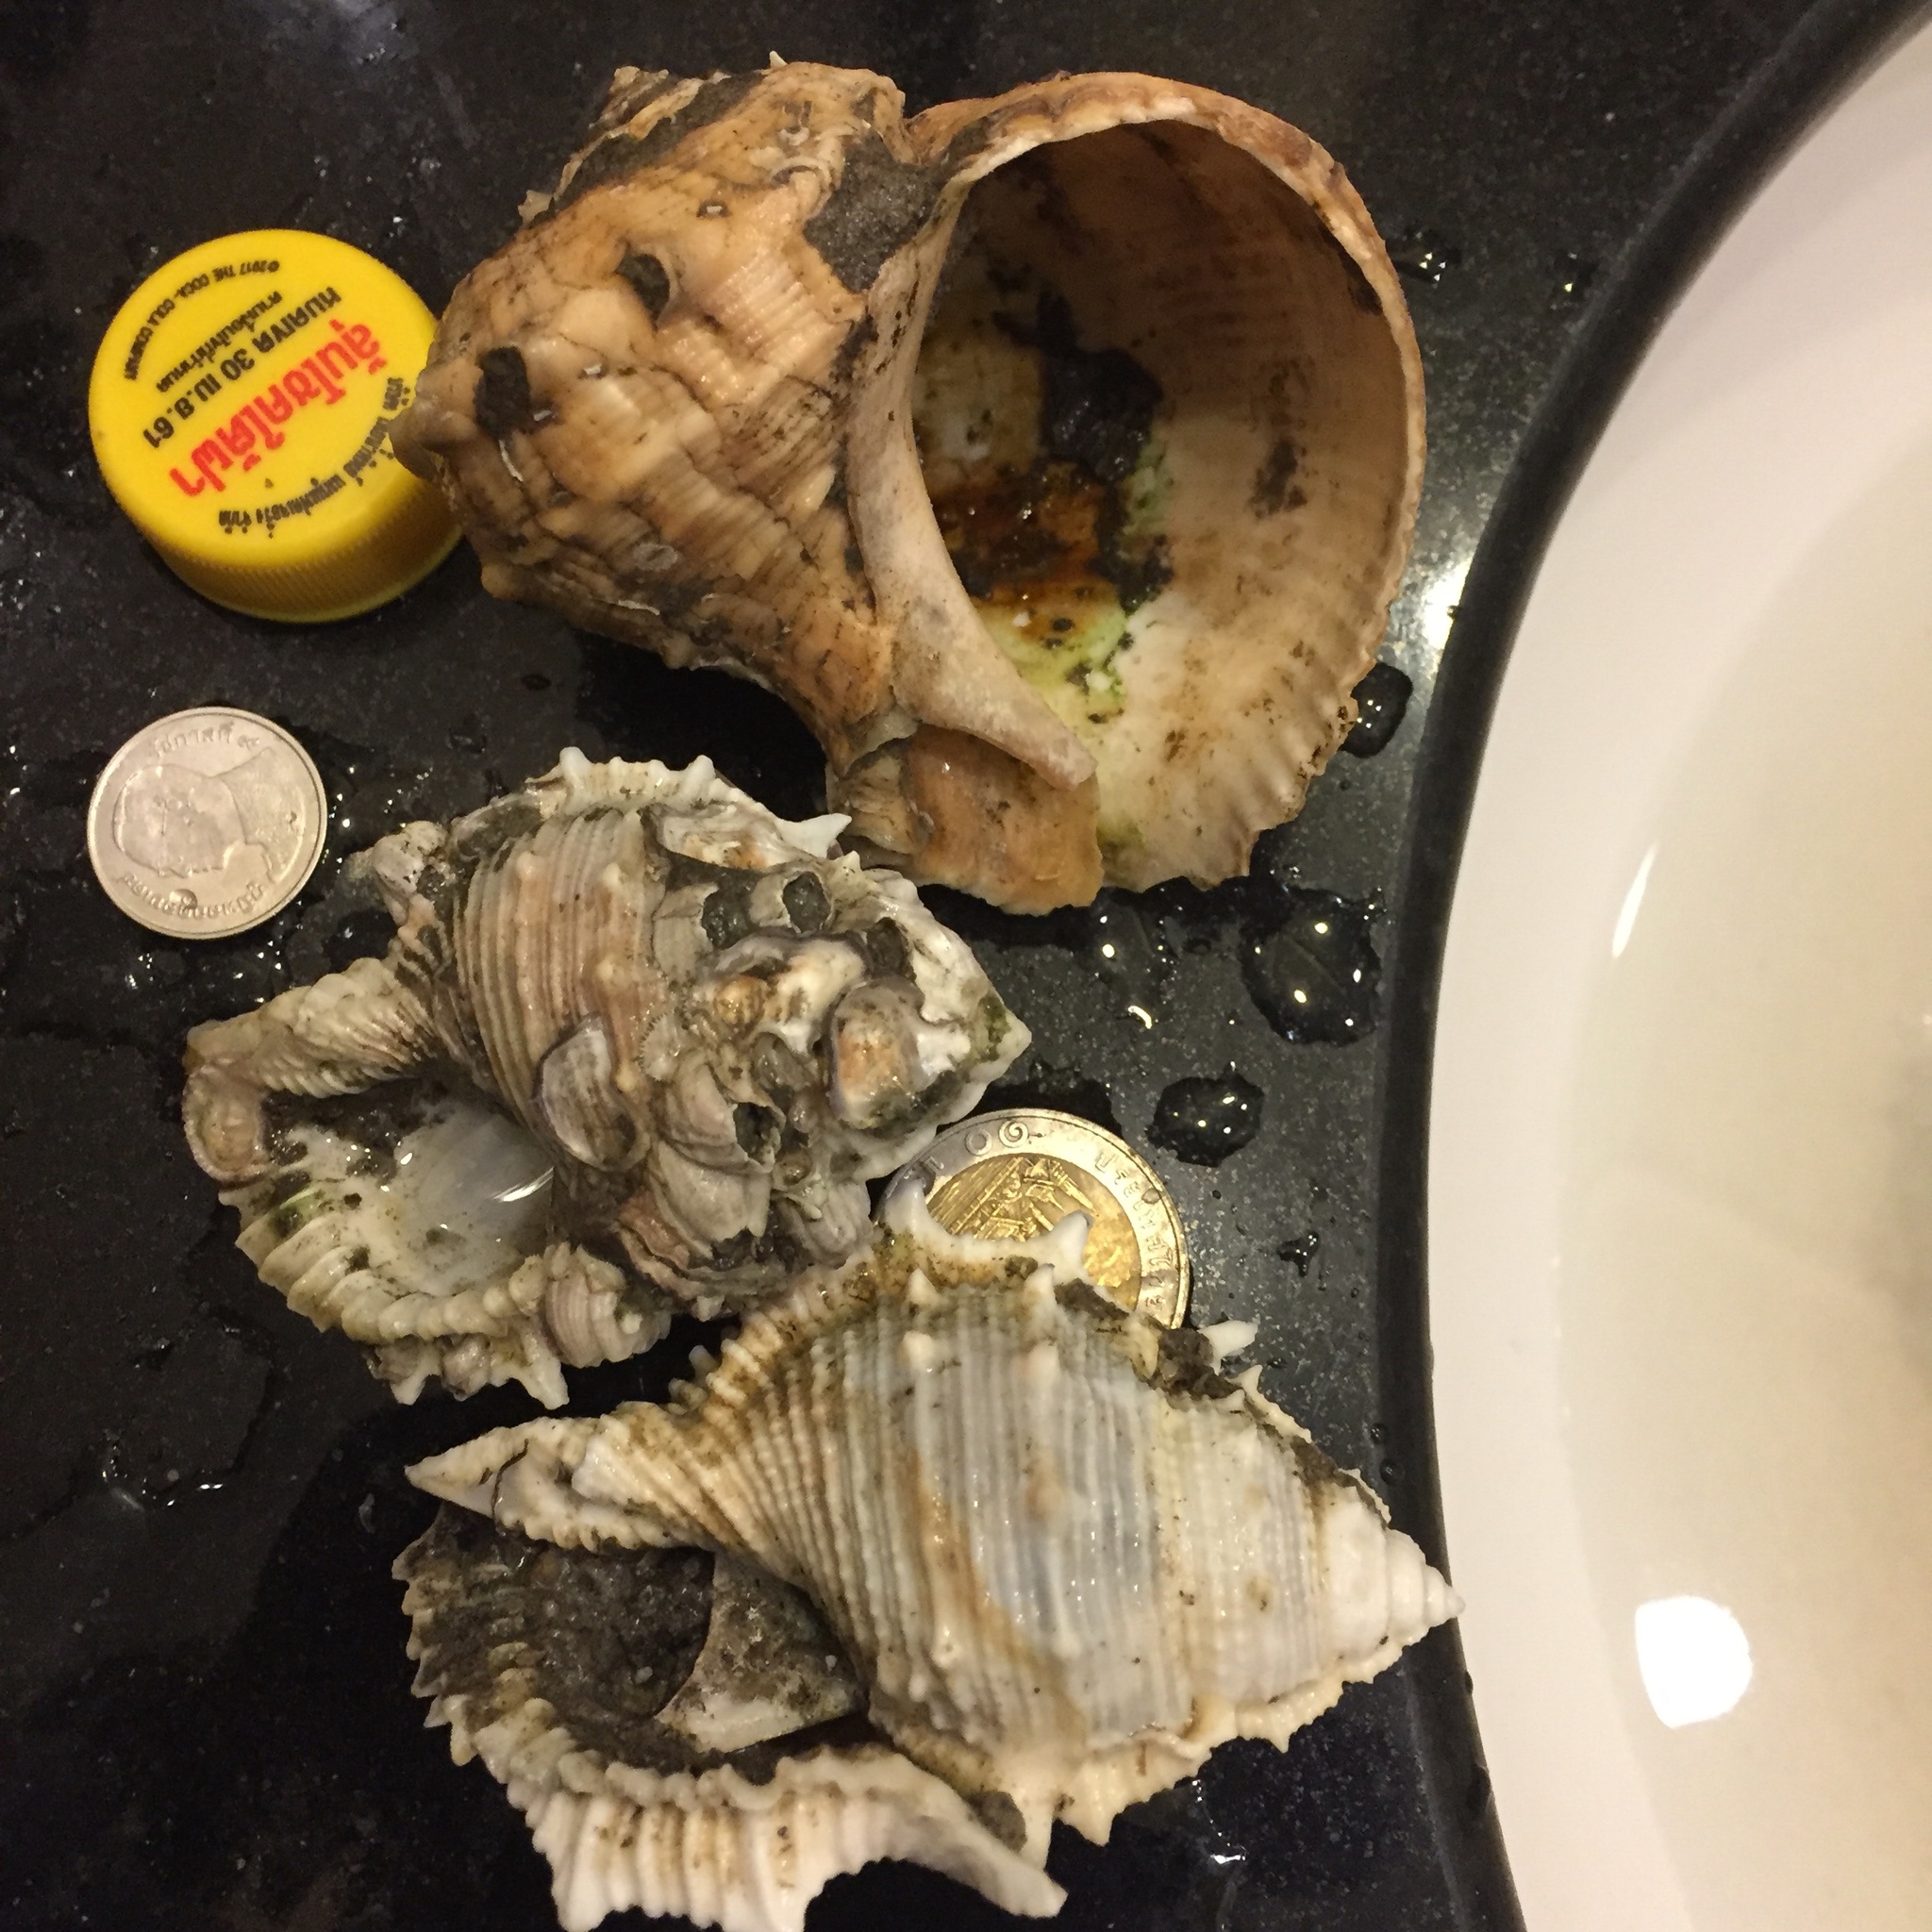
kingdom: Animalia
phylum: Mollusca
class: Gastropoda
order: Littorinimorpha
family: Bursidae
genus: Bufonaria
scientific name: Bufonaria rana
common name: Common frogsnail
